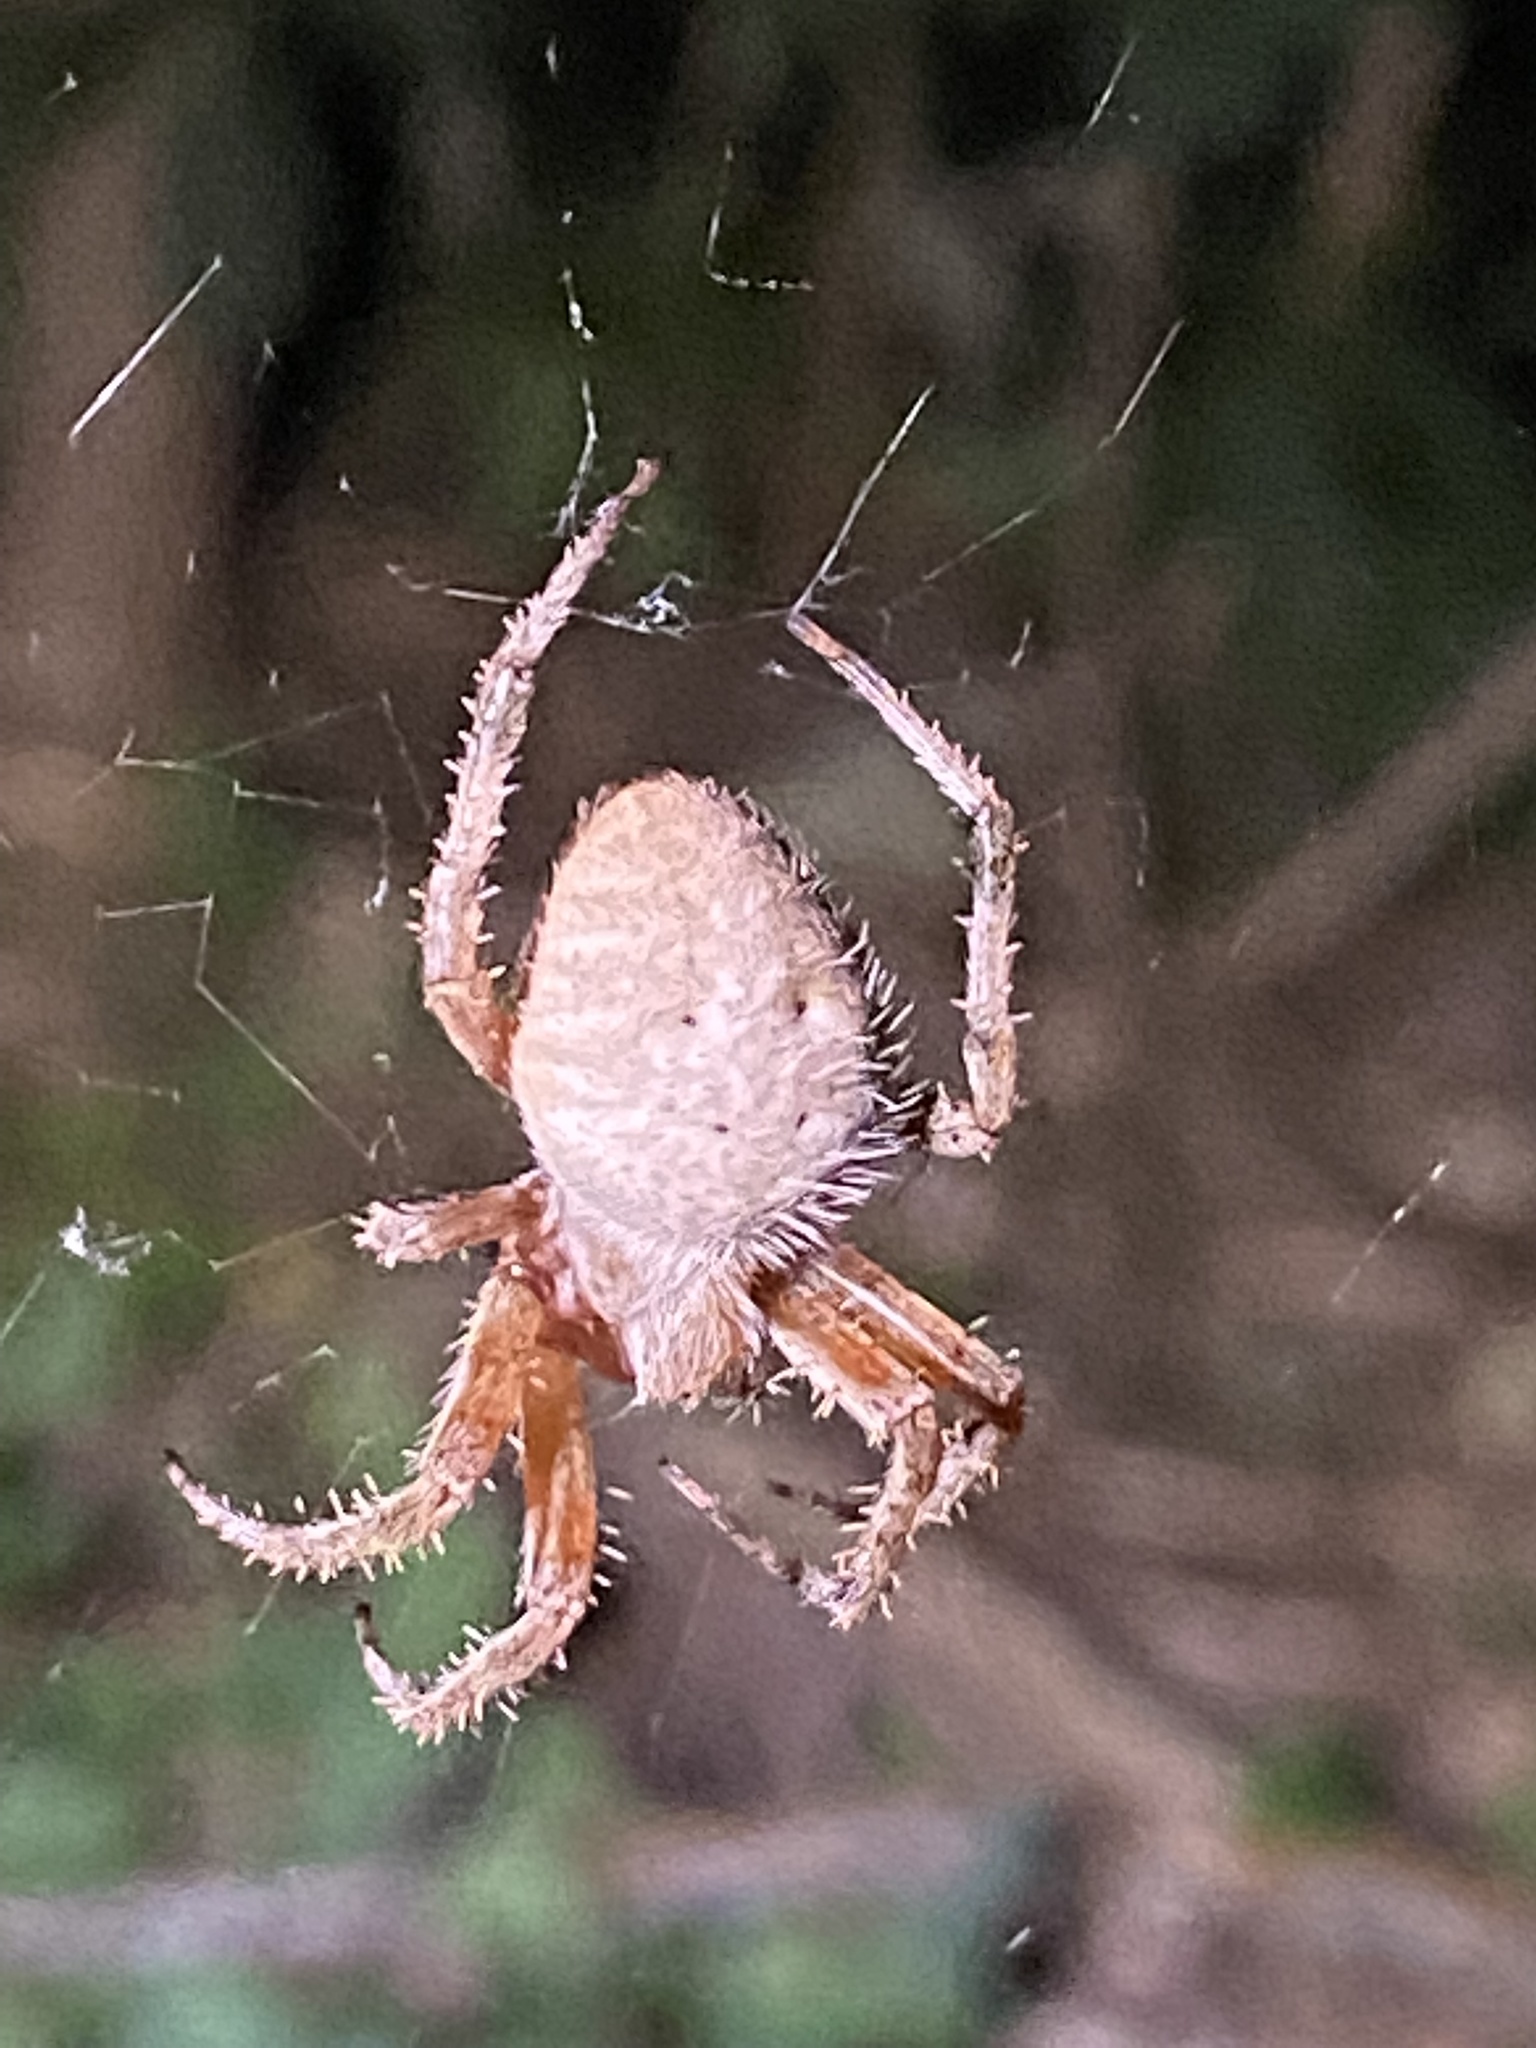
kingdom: Animalia
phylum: Arthropoda
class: Arachnida
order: Araneae
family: Araneidae
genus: Neoscona
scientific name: Neoscona crucifera
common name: Spotted orbweaver
